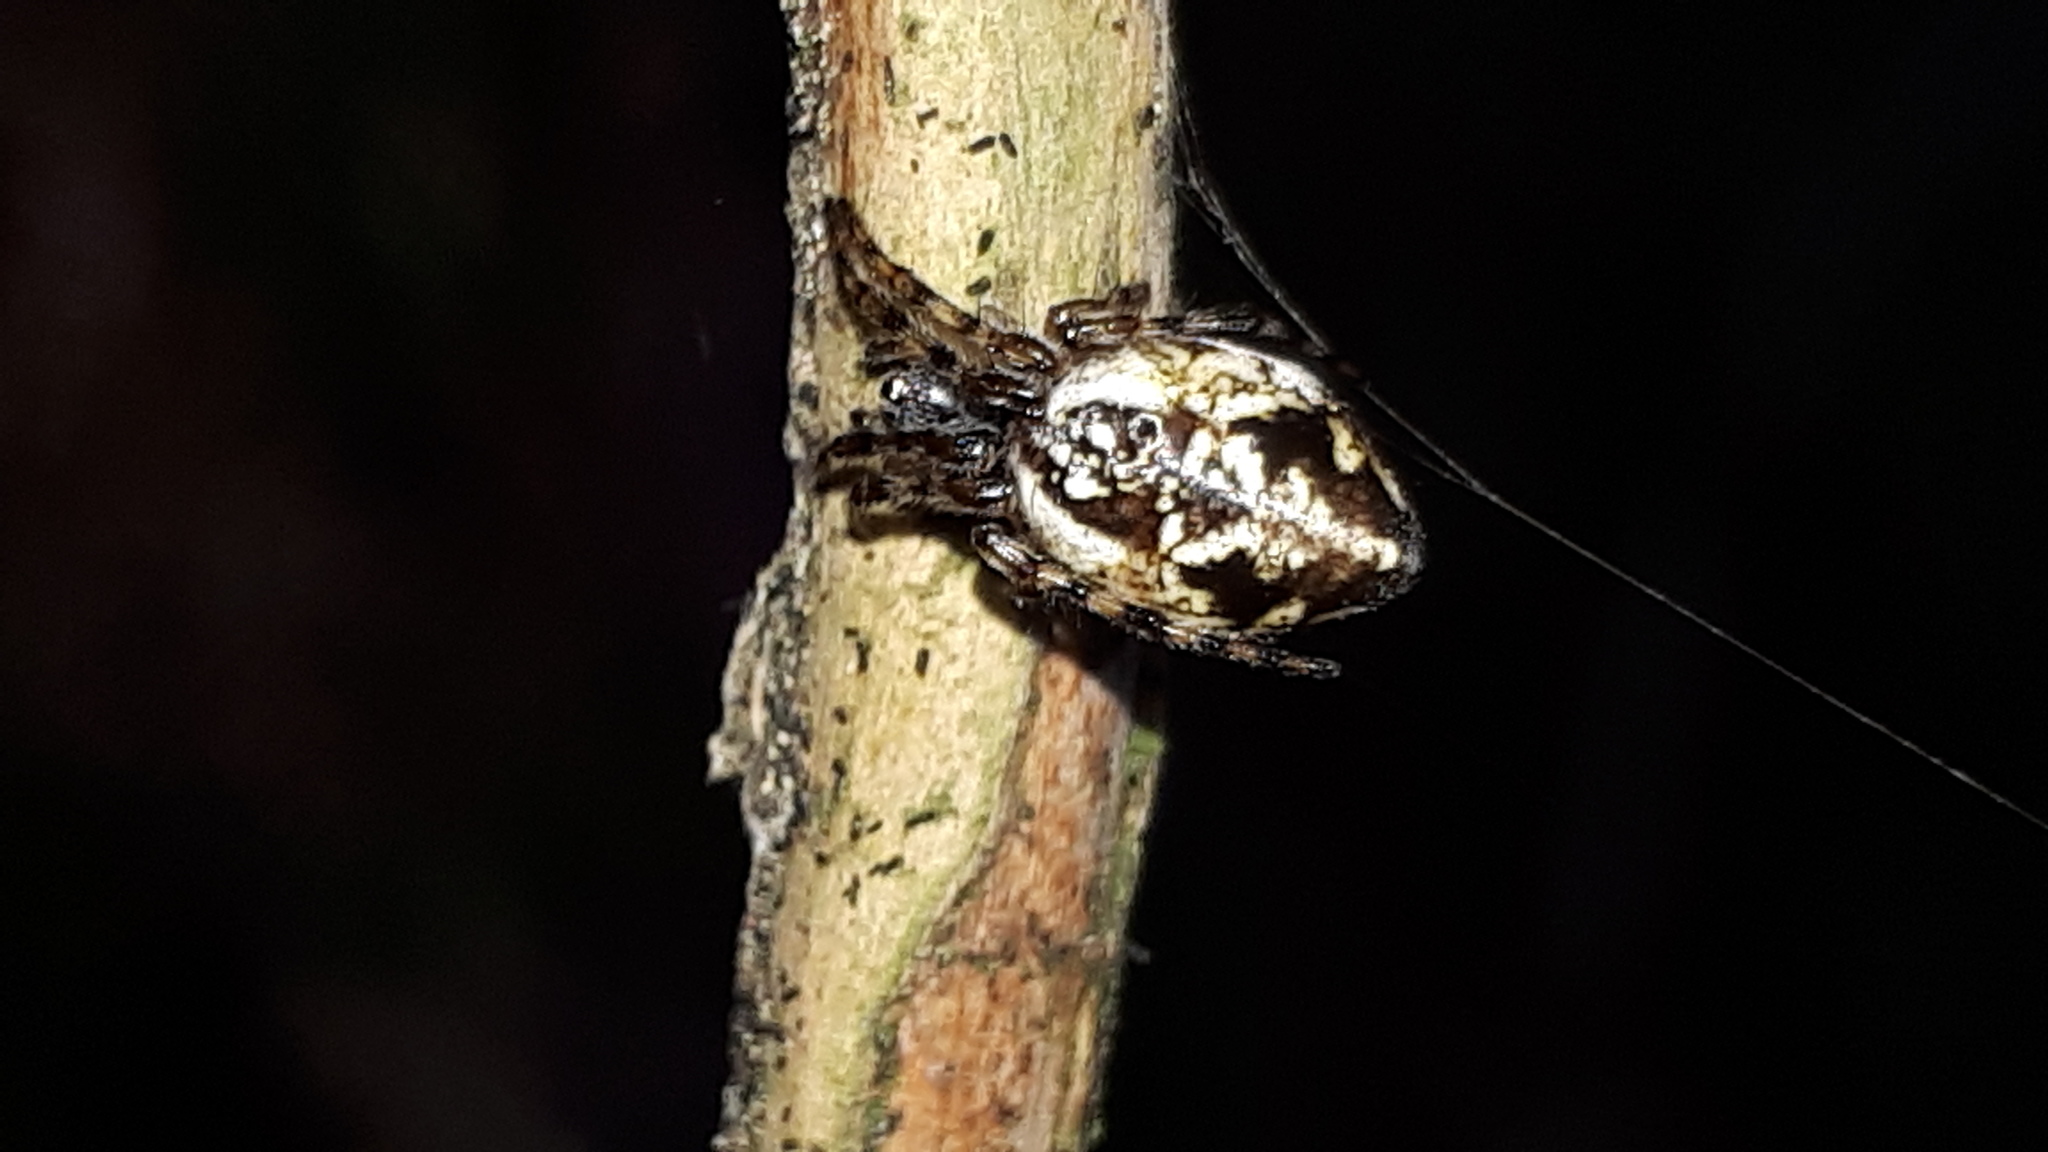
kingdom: Animalia
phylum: Arthropoda
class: Arachnida
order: Araneae
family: Araneidae
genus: Cyclosa
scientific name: Cyclosa conica
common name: Conical trashline orbweaver
